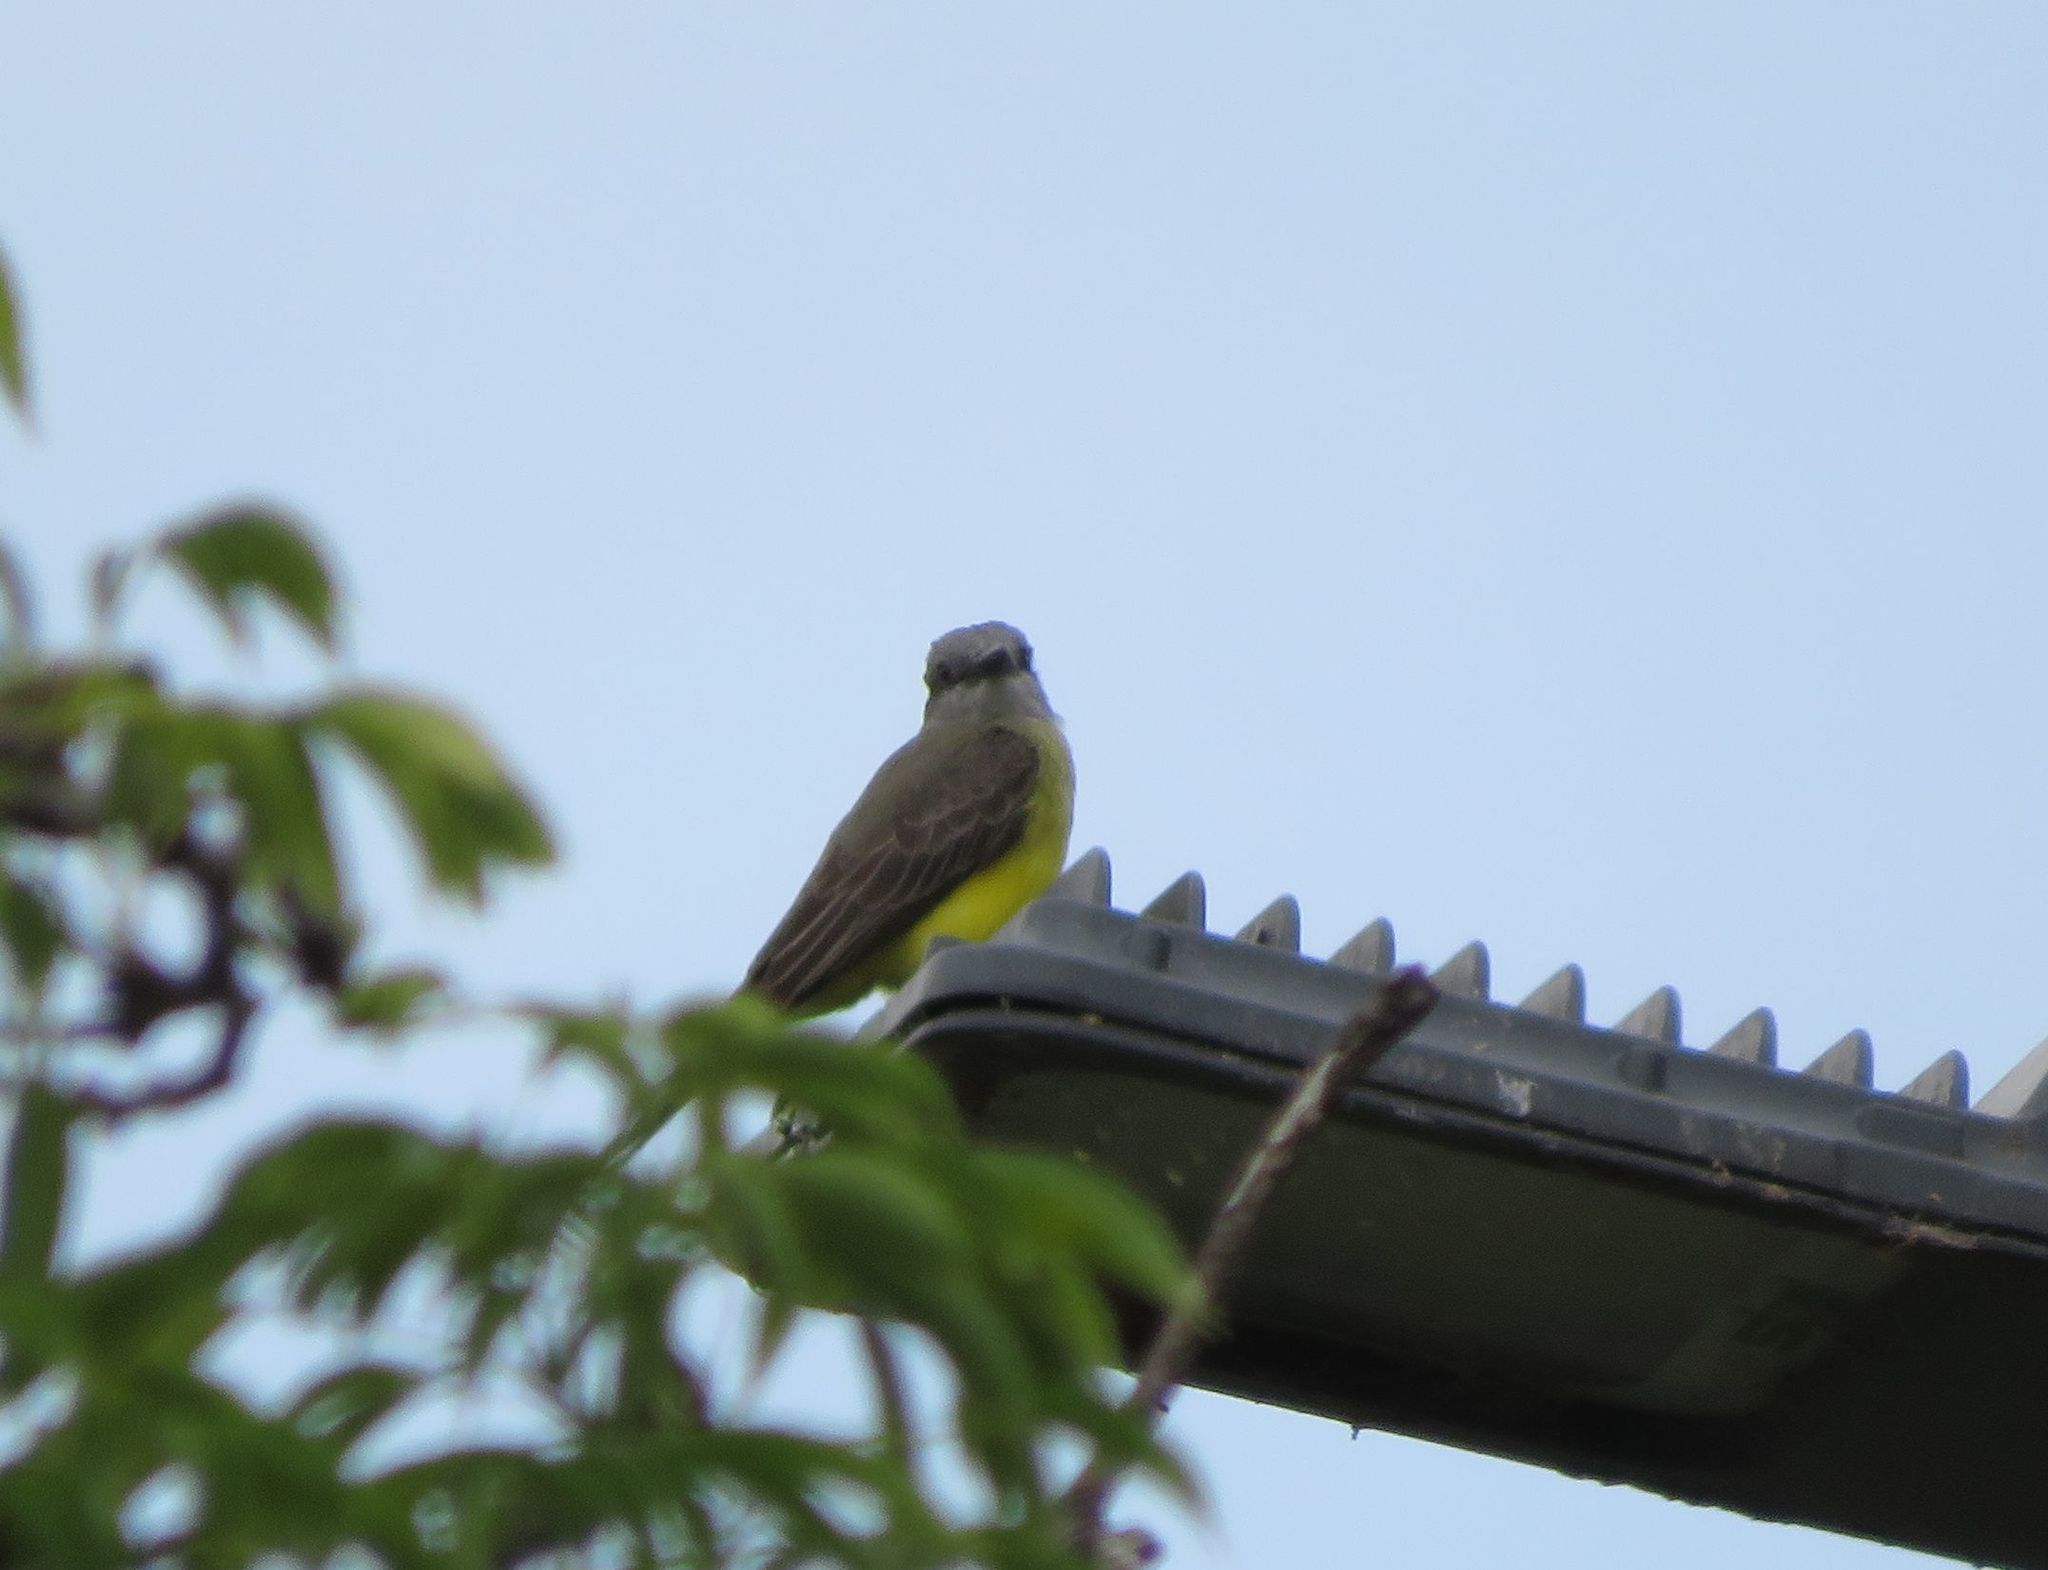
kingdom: Animalia
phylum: Chordata
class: Aves
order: Passeriformes
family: Tyrannidae
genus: Tyrannus
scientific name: Tyrannus melancholicus
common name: Tropical kingbird
